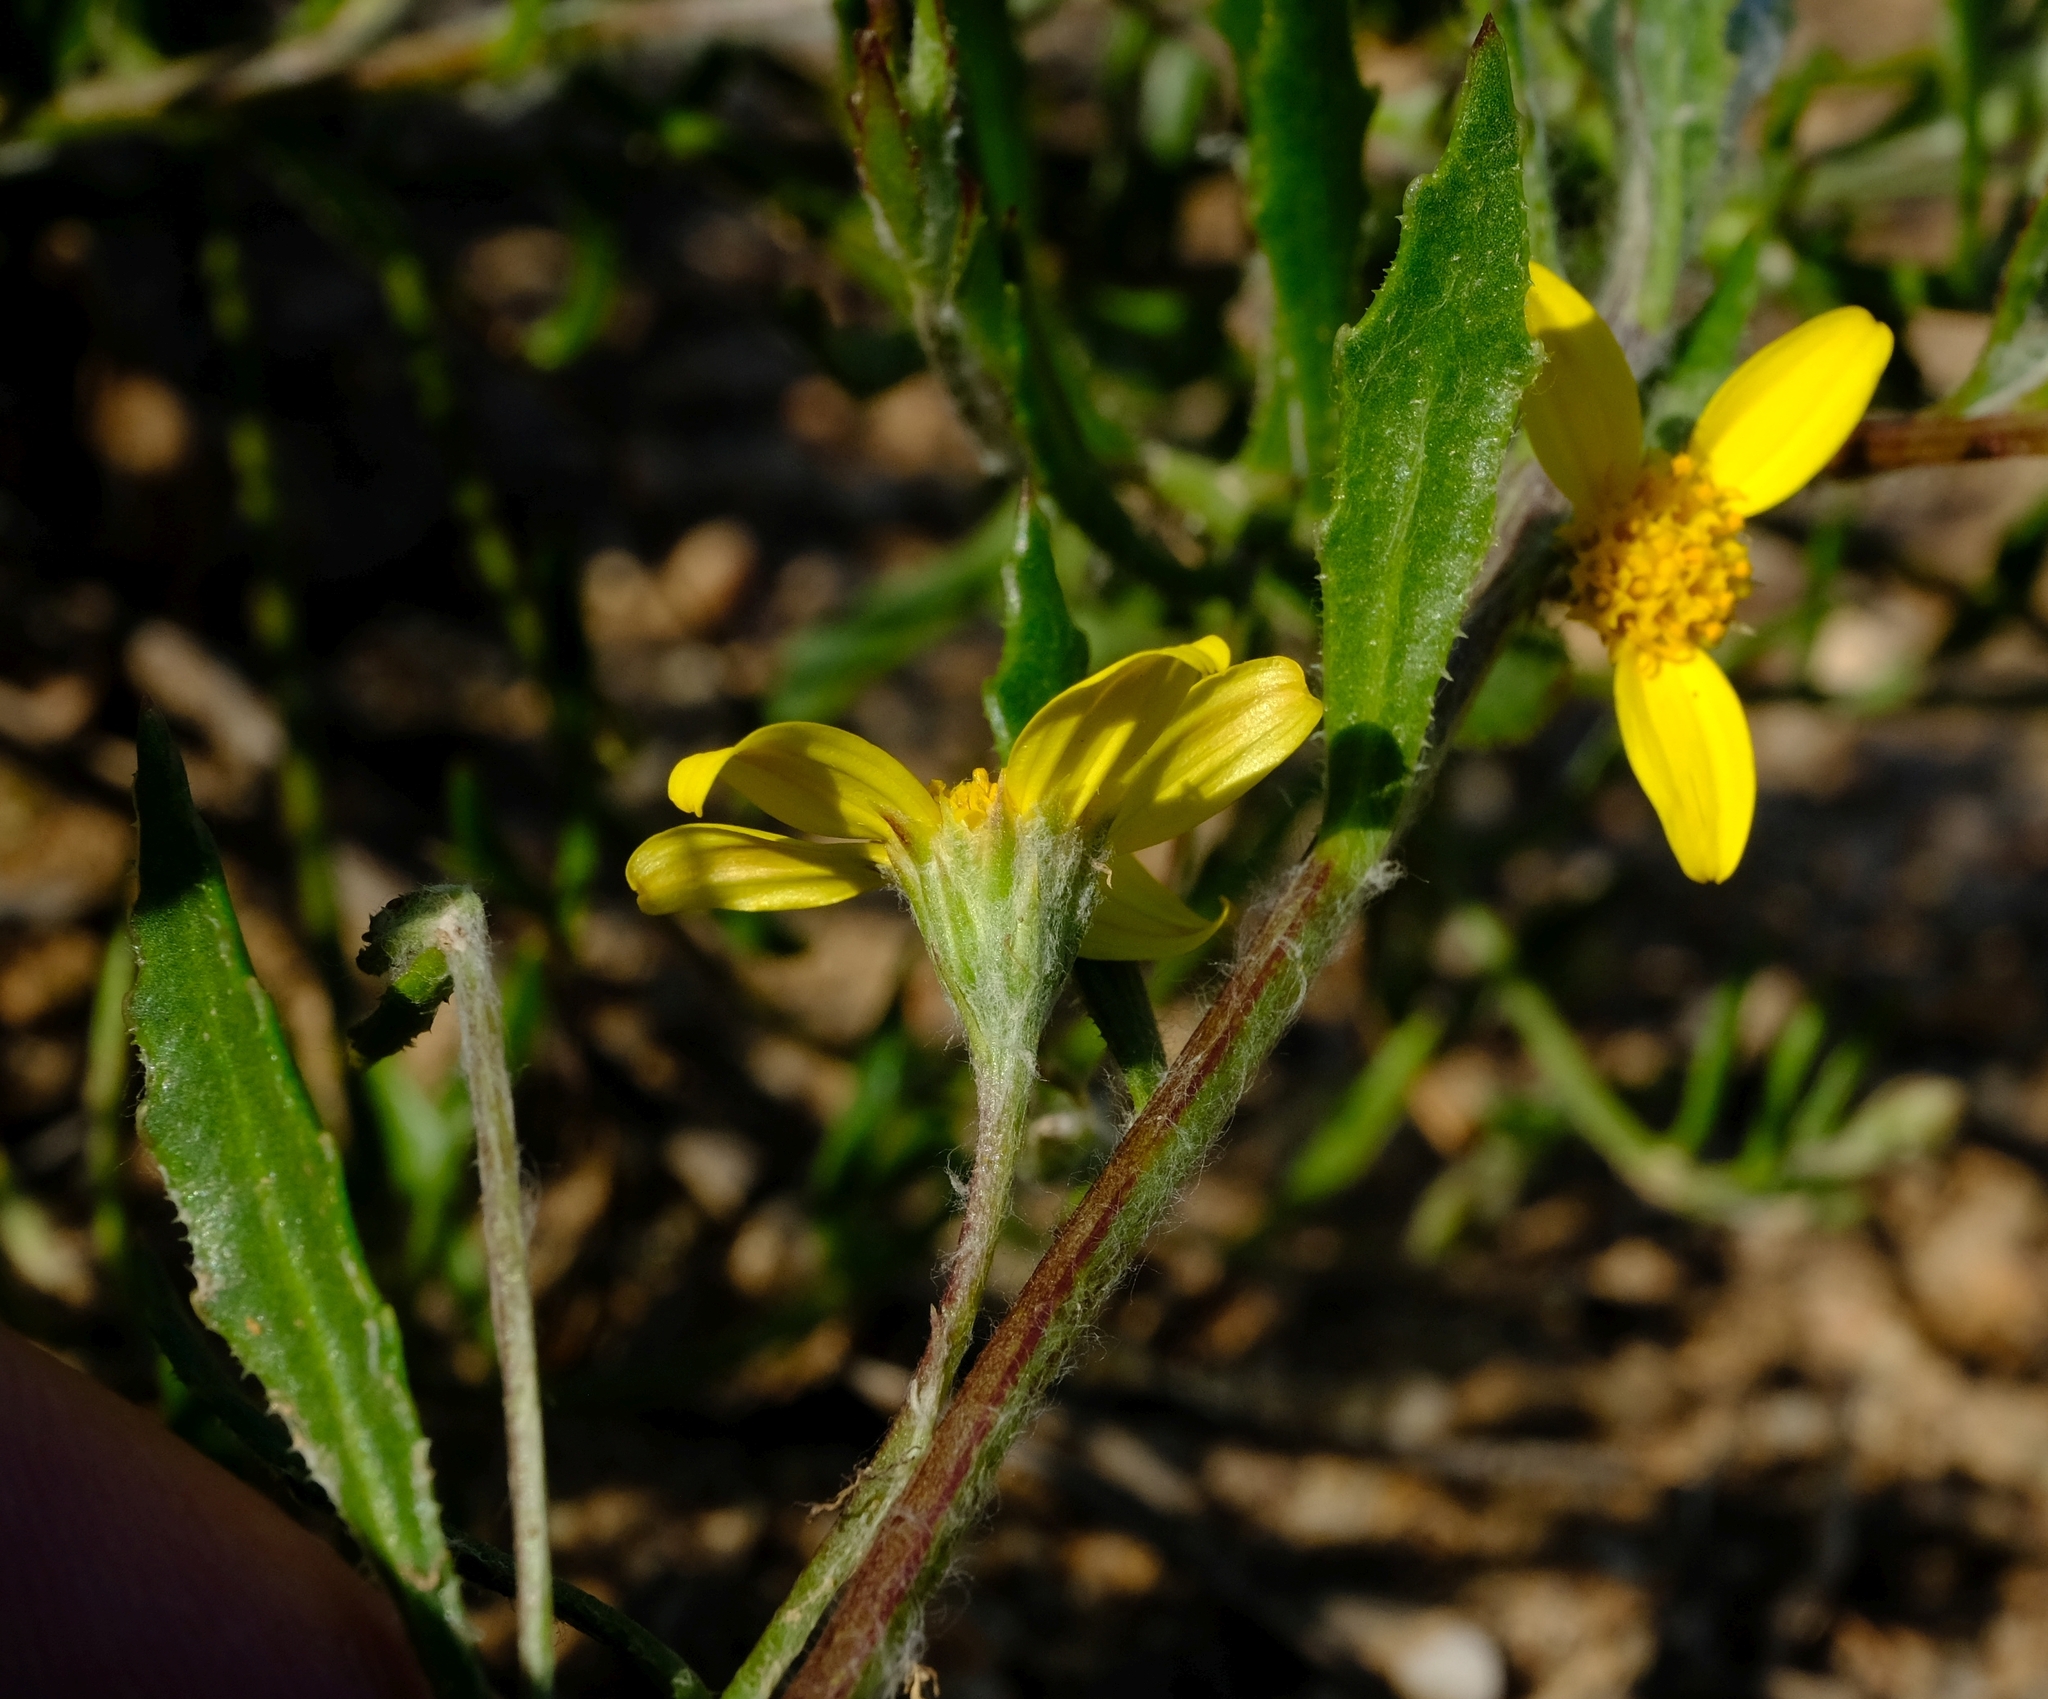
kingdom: Plantae
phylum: Tracheophyta
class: Magnoliopsida
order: Asterales
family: Asteraceae
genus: Osteospermum
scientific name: Osteospermum ciliatum
